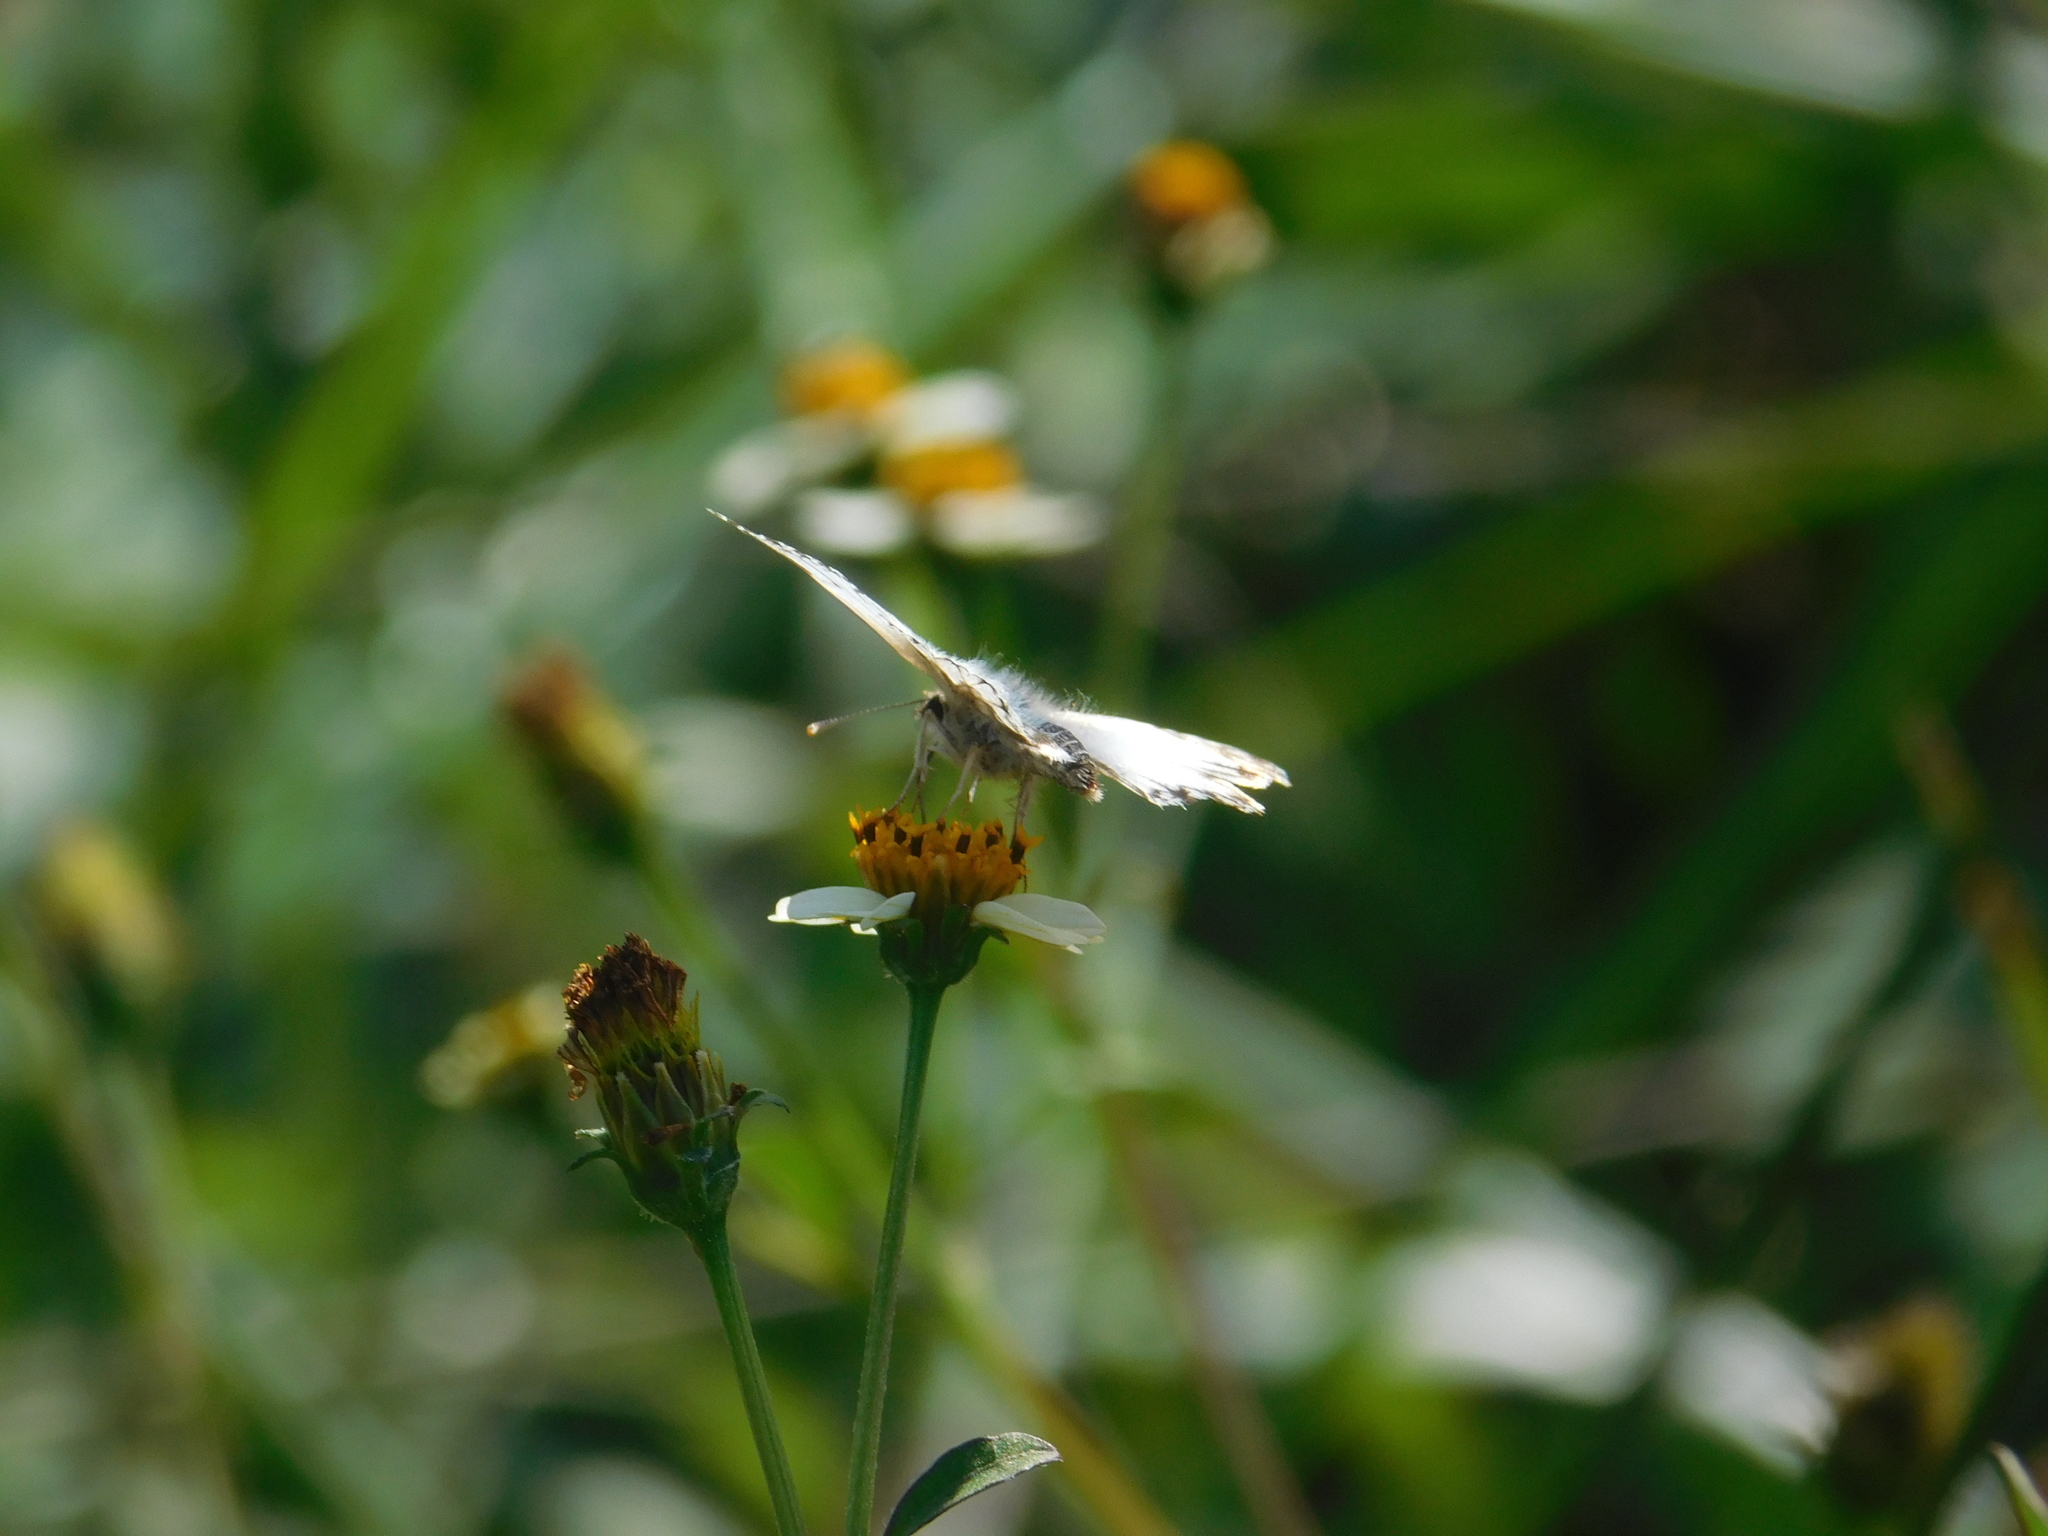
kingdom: Animalia
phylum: Arthropoda
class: Insecta
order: Lepidoptera
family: Hesperiidae
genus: Heliopetes
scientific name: Heliopetes omrina
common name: Stained white-skipper
